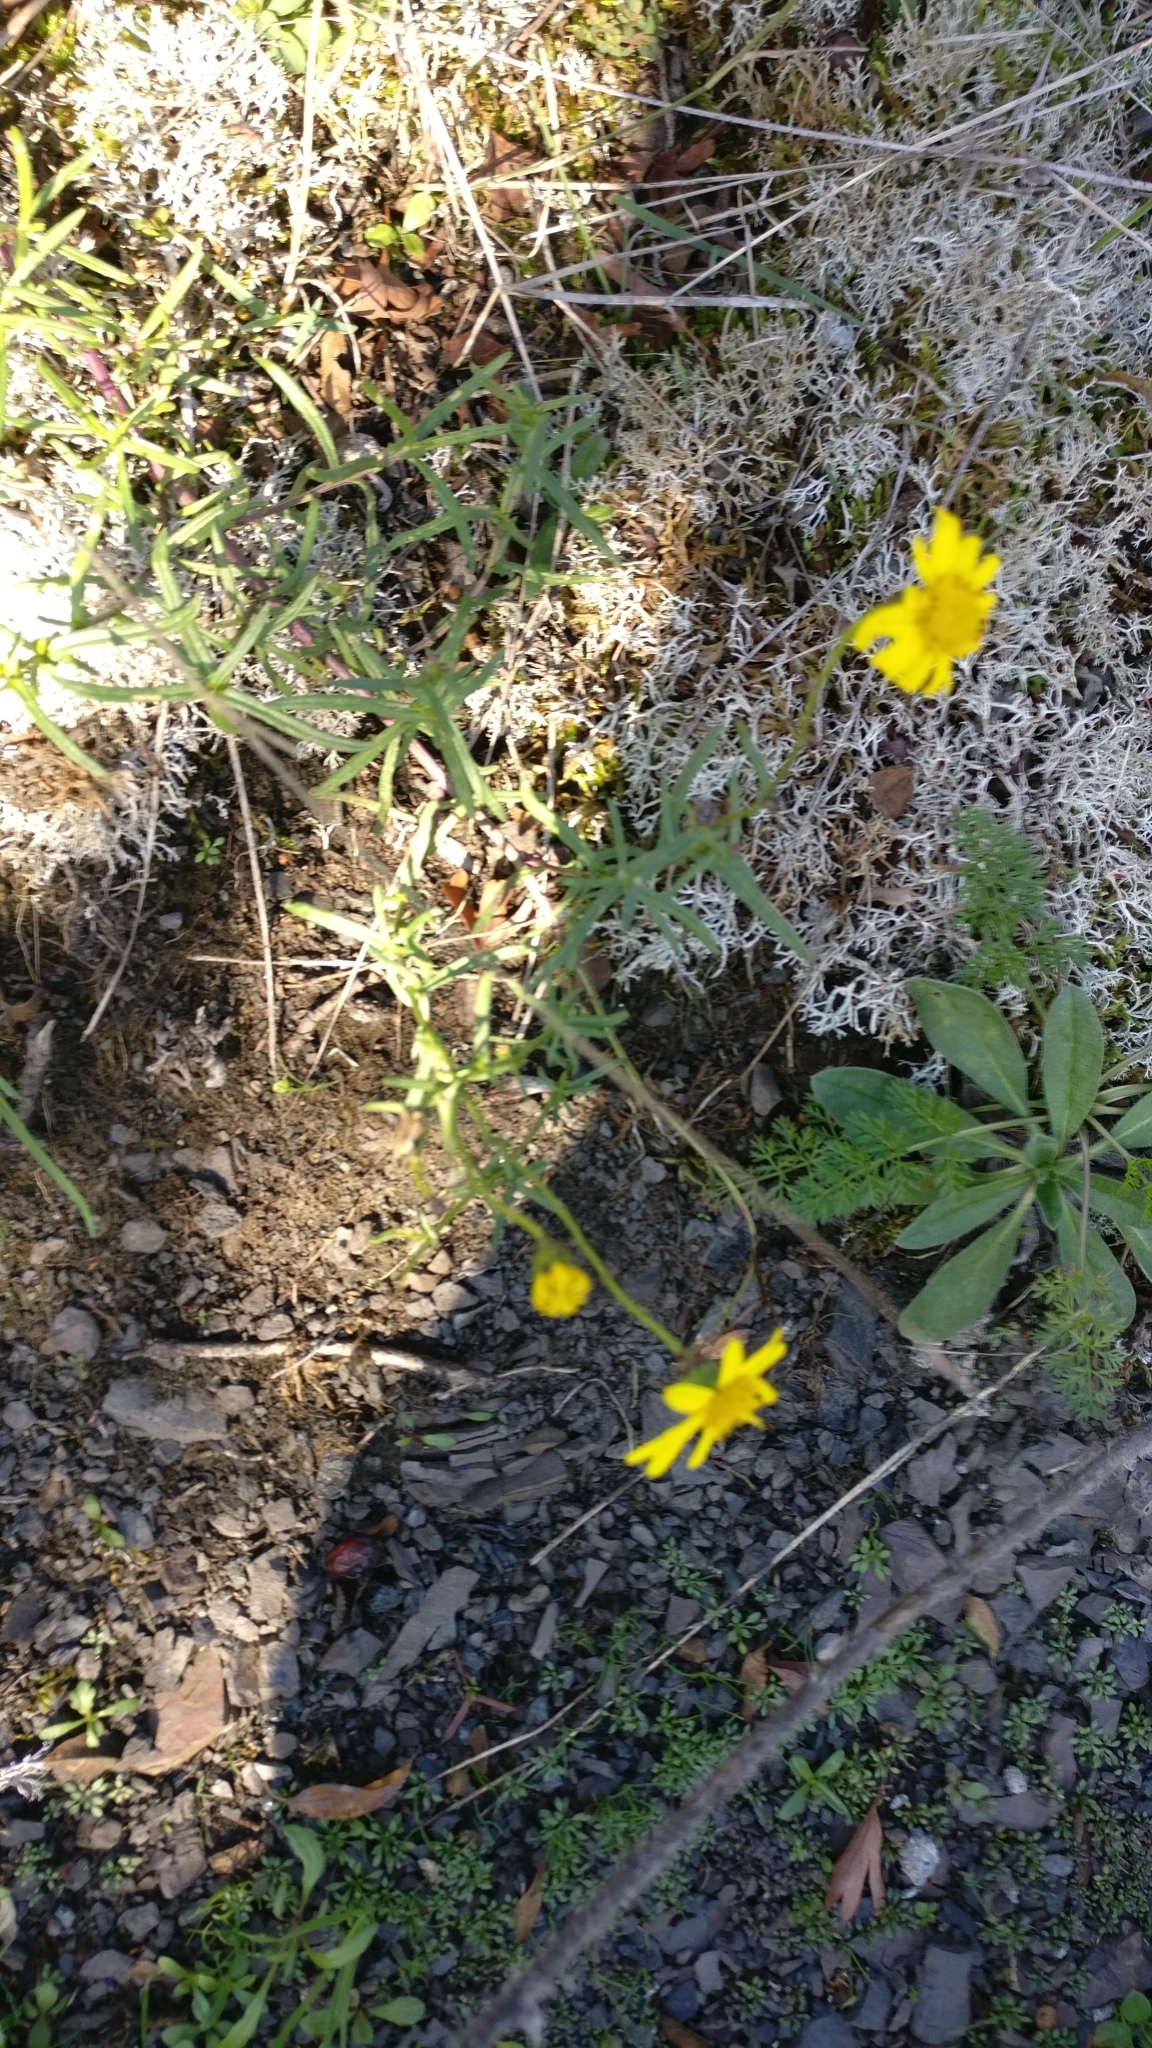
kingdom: Plantae
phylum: Tracheophyta
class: Magnoliopsida
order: Asterales
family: Asteraceae
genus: Senecio
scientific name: Senecio inaequidens
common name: Narrow-leaved ragwort
